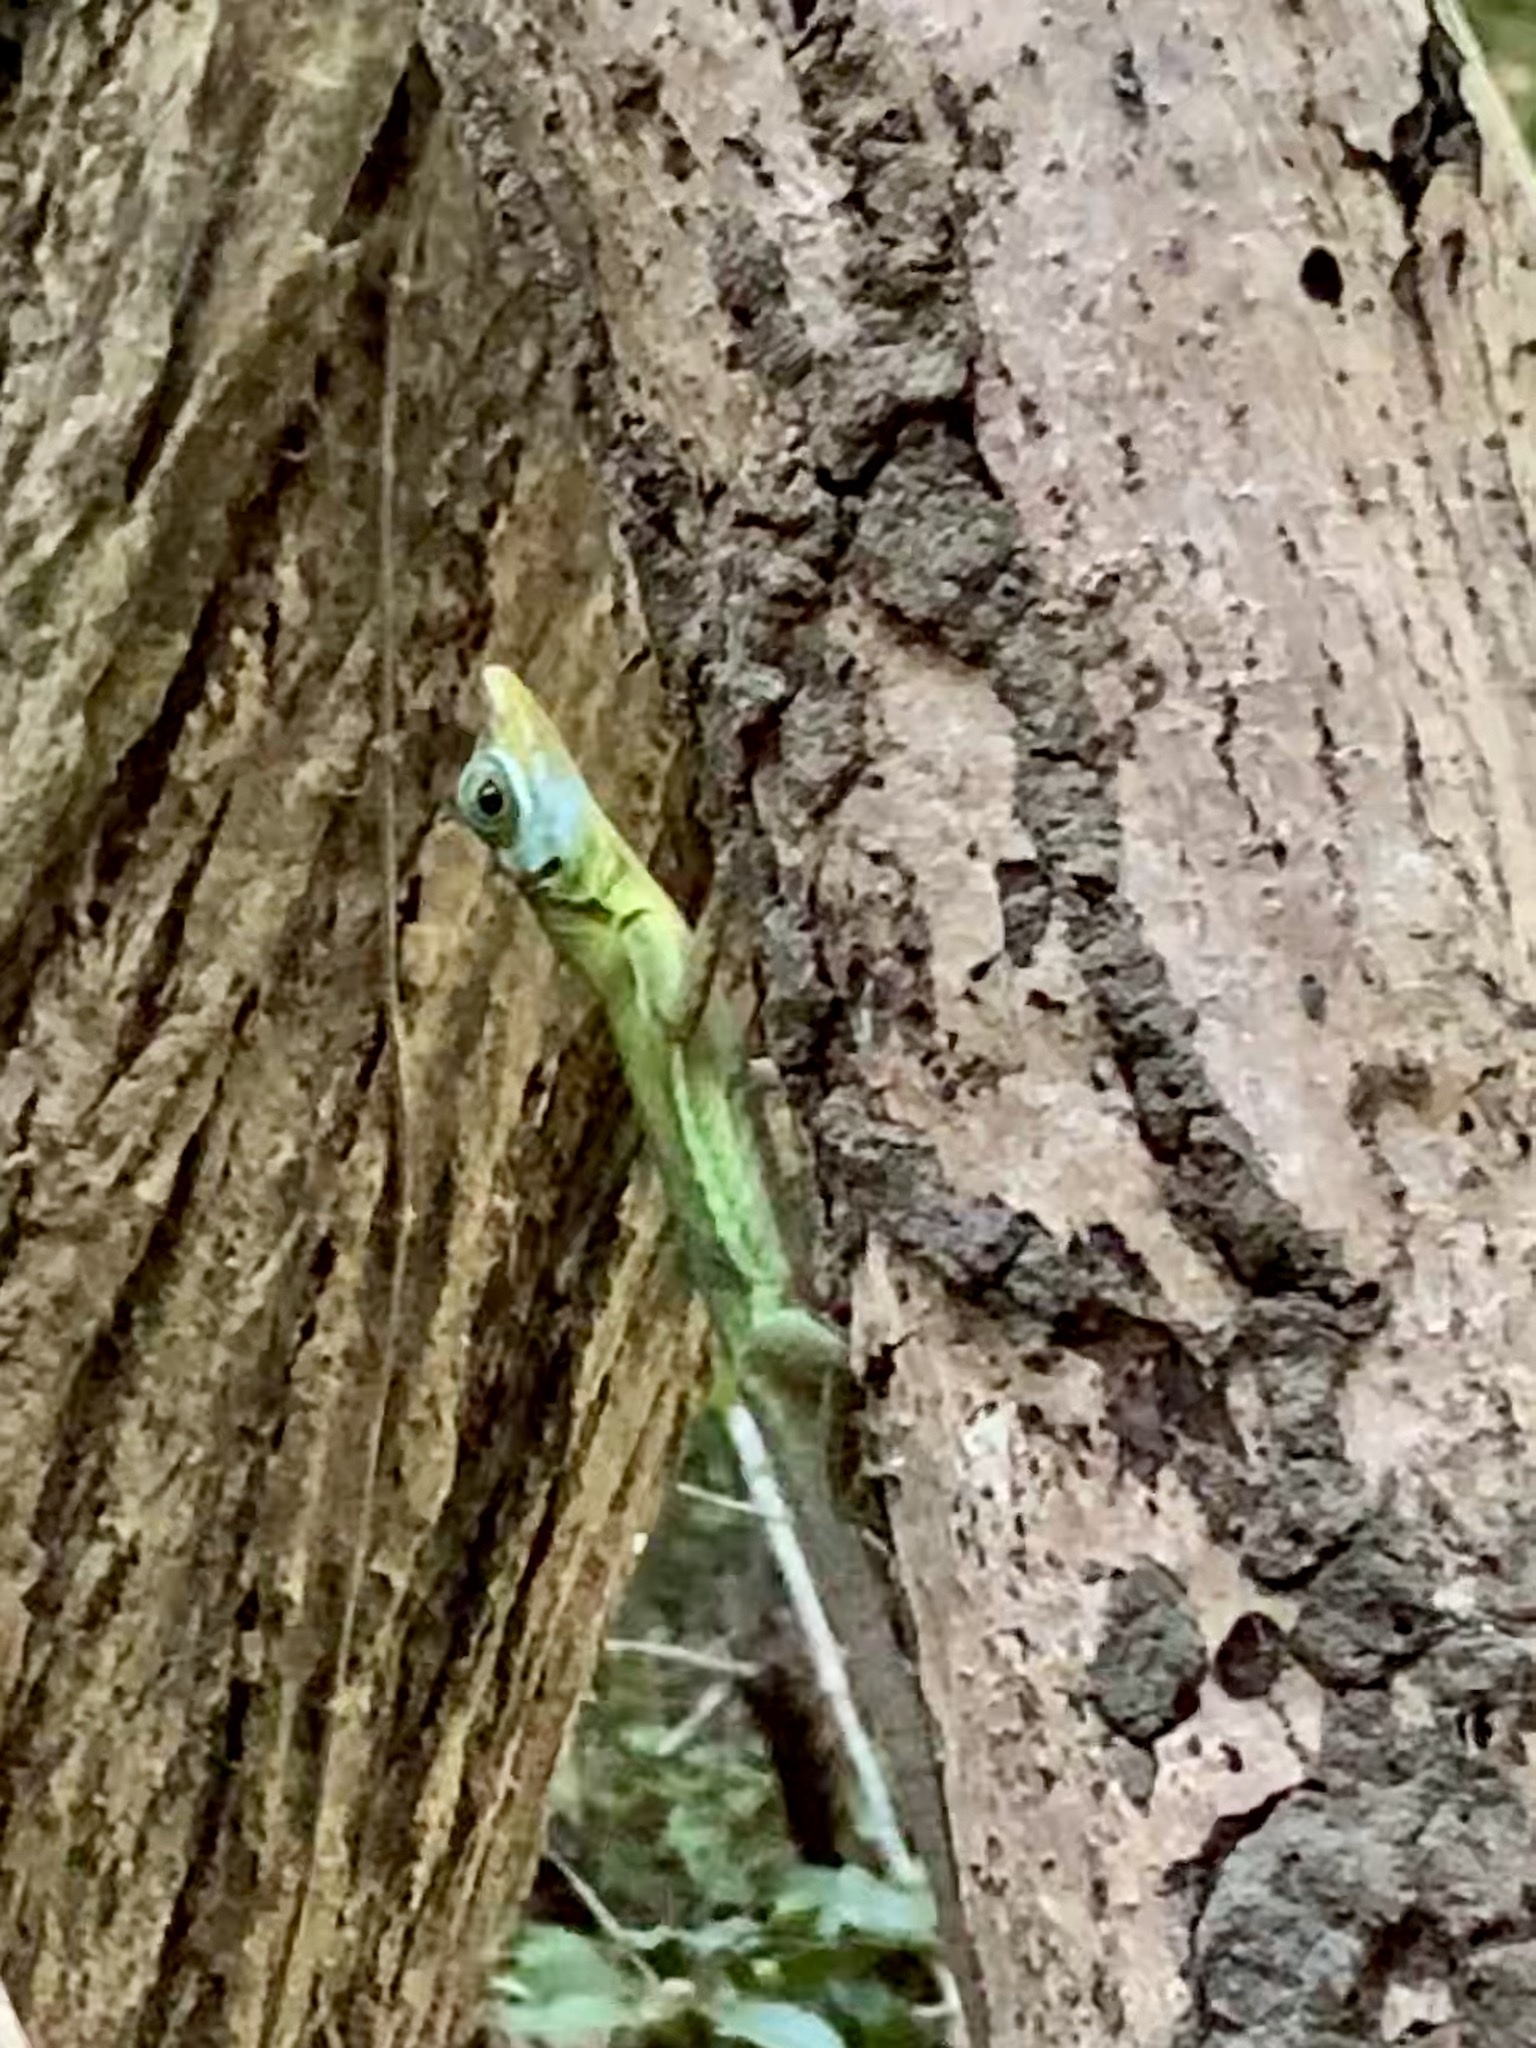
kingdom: Animalia
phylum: Chordata
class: Squamata
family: Dactyloidae
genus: Anolis
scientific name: Anolis richardii
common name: Grenada tree anole
